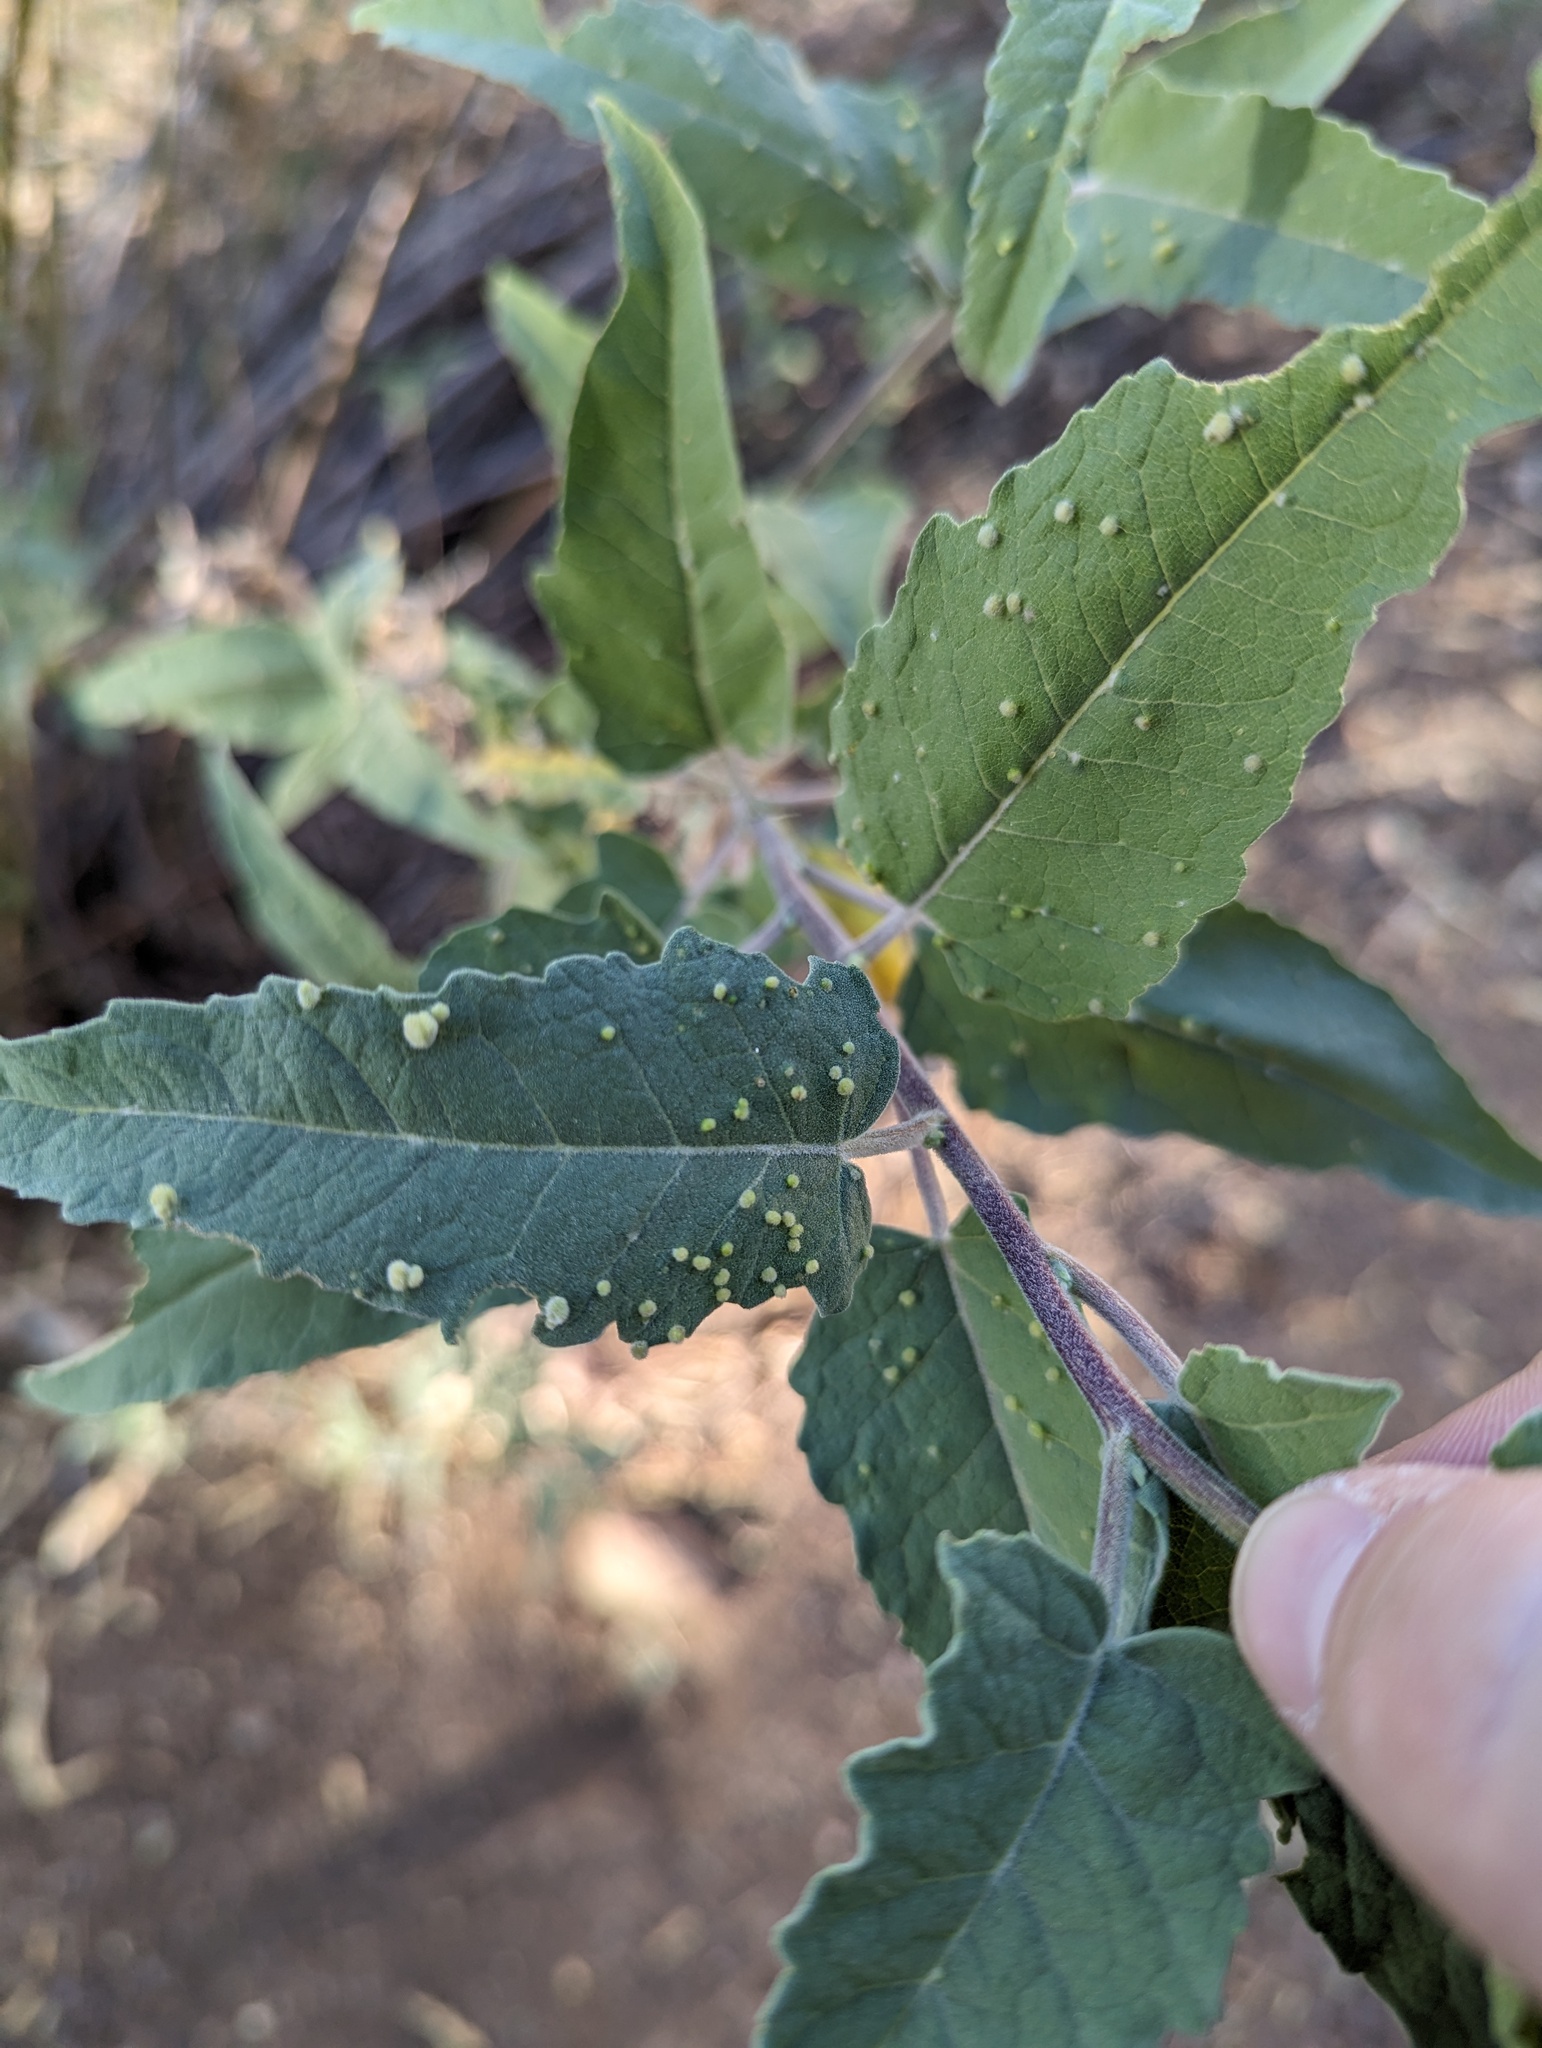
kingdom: Animalia
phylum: Arthropoda
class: Arachnida
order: Trombidiformes
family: Eriophyidae
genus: Aceria
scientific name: Aceria
